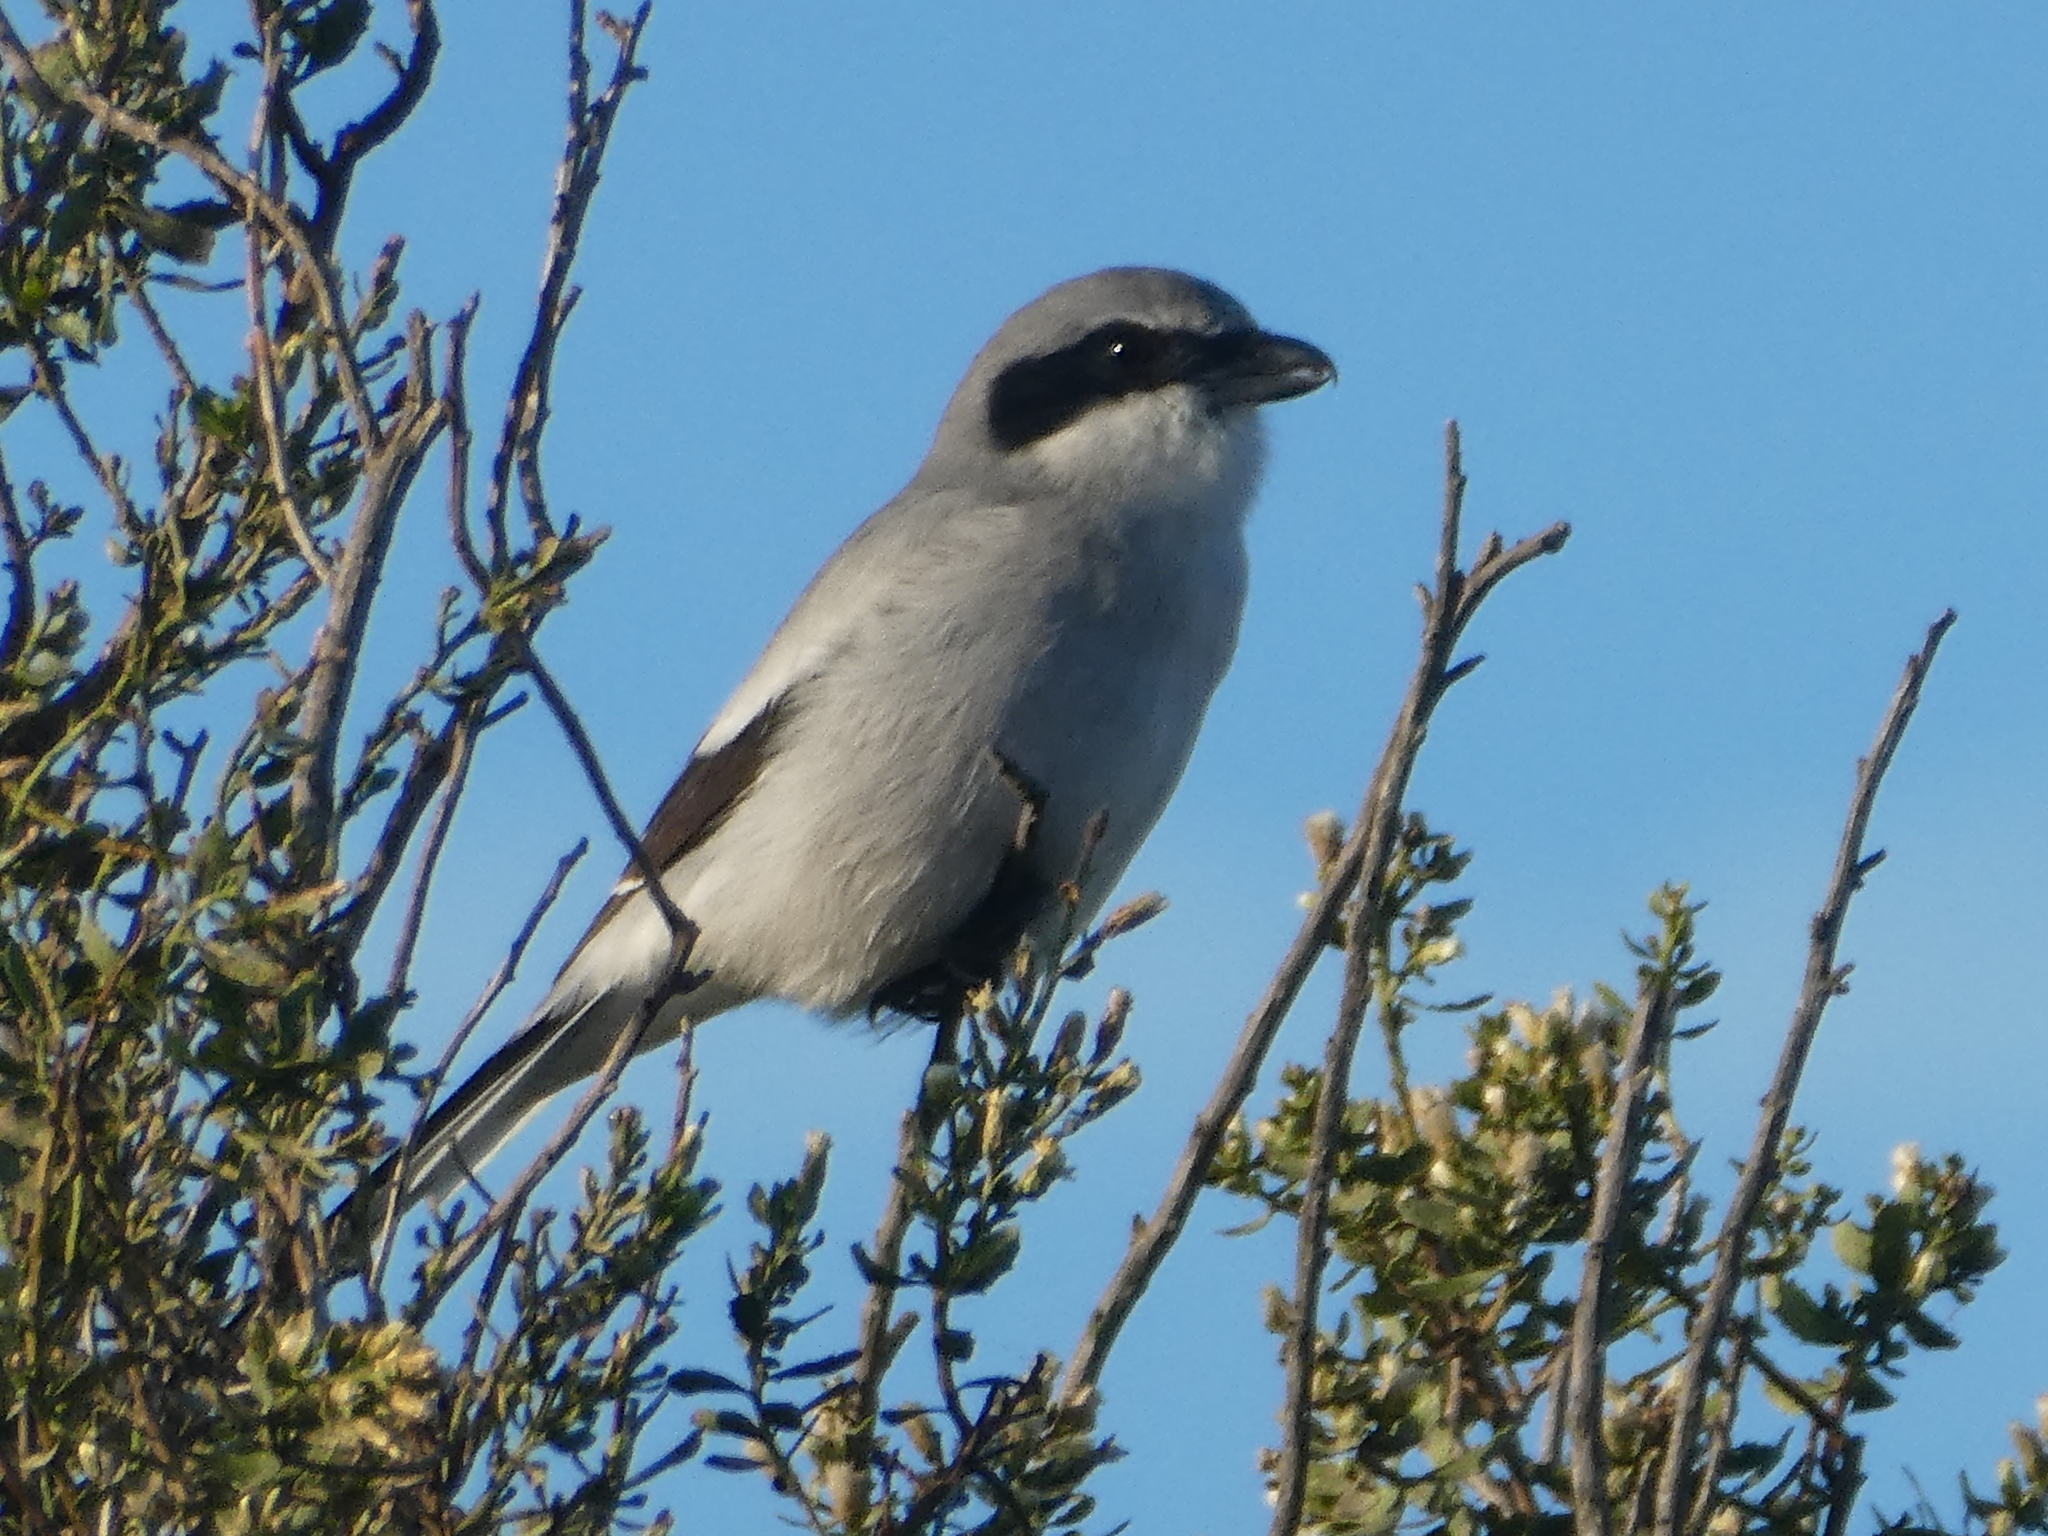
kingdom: Animalia
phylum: Chordata
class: Aves
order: Passeriformes
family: Laniidae
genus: Lanius
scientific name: Lanius ludovicianus
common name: Loggerhead shrike
